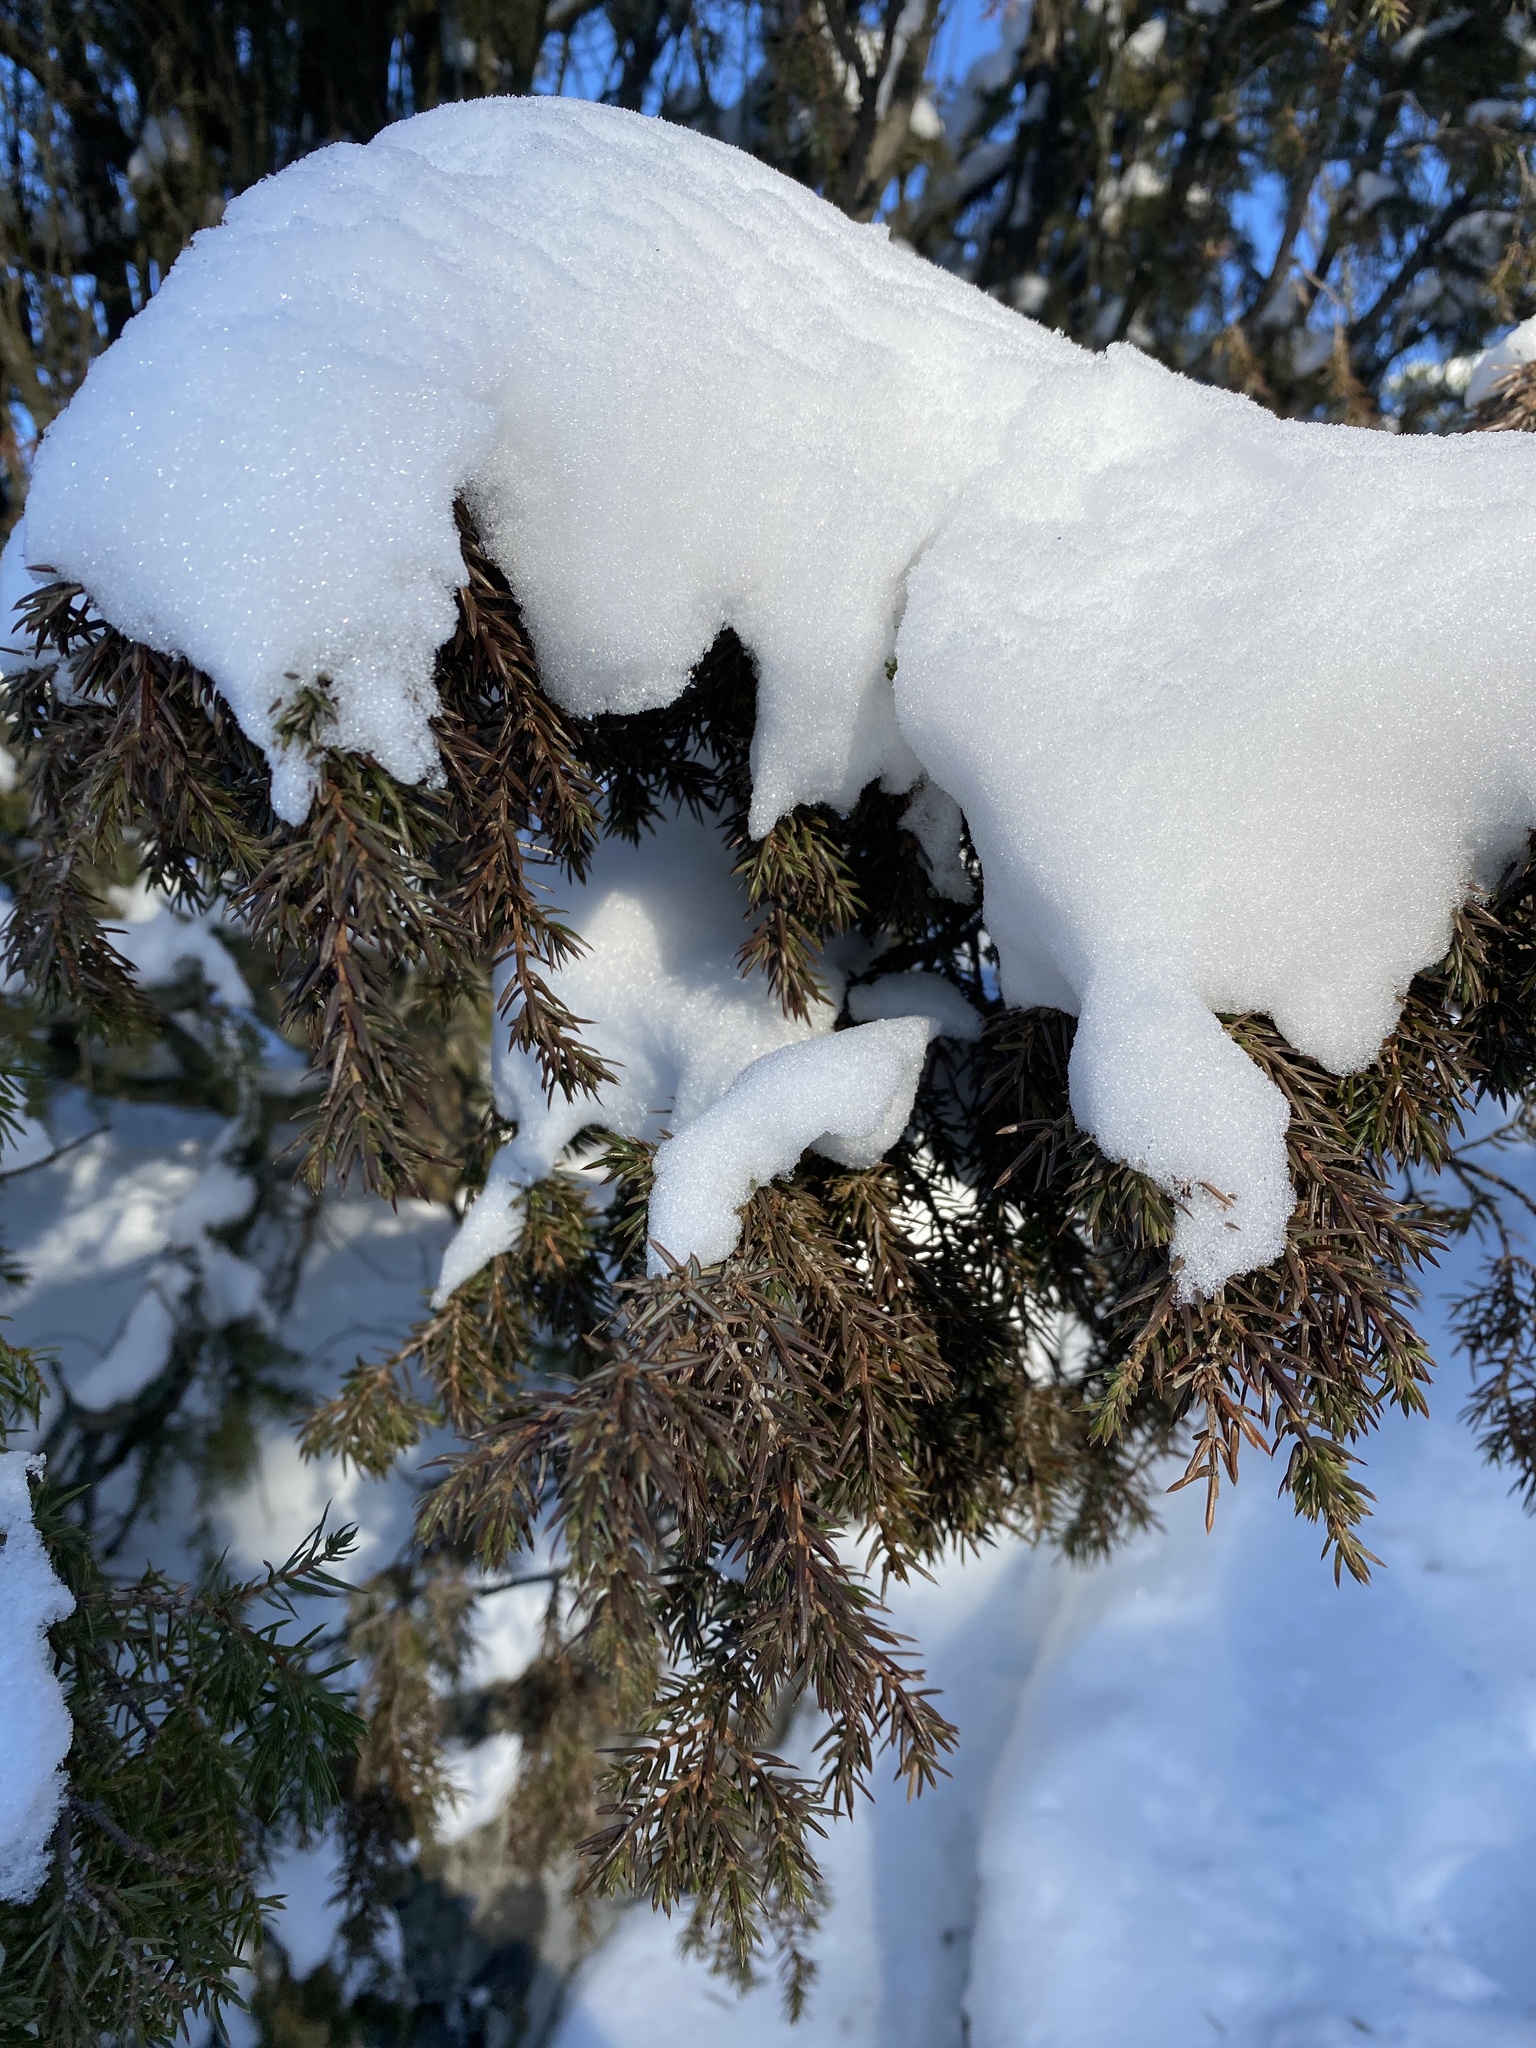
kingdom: Plantae
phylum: Tracheophyta
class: Pinopsida
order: Pinales
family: Cupressaceae
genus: Juniperus
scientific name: Juniperus communis
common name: Common juniper
